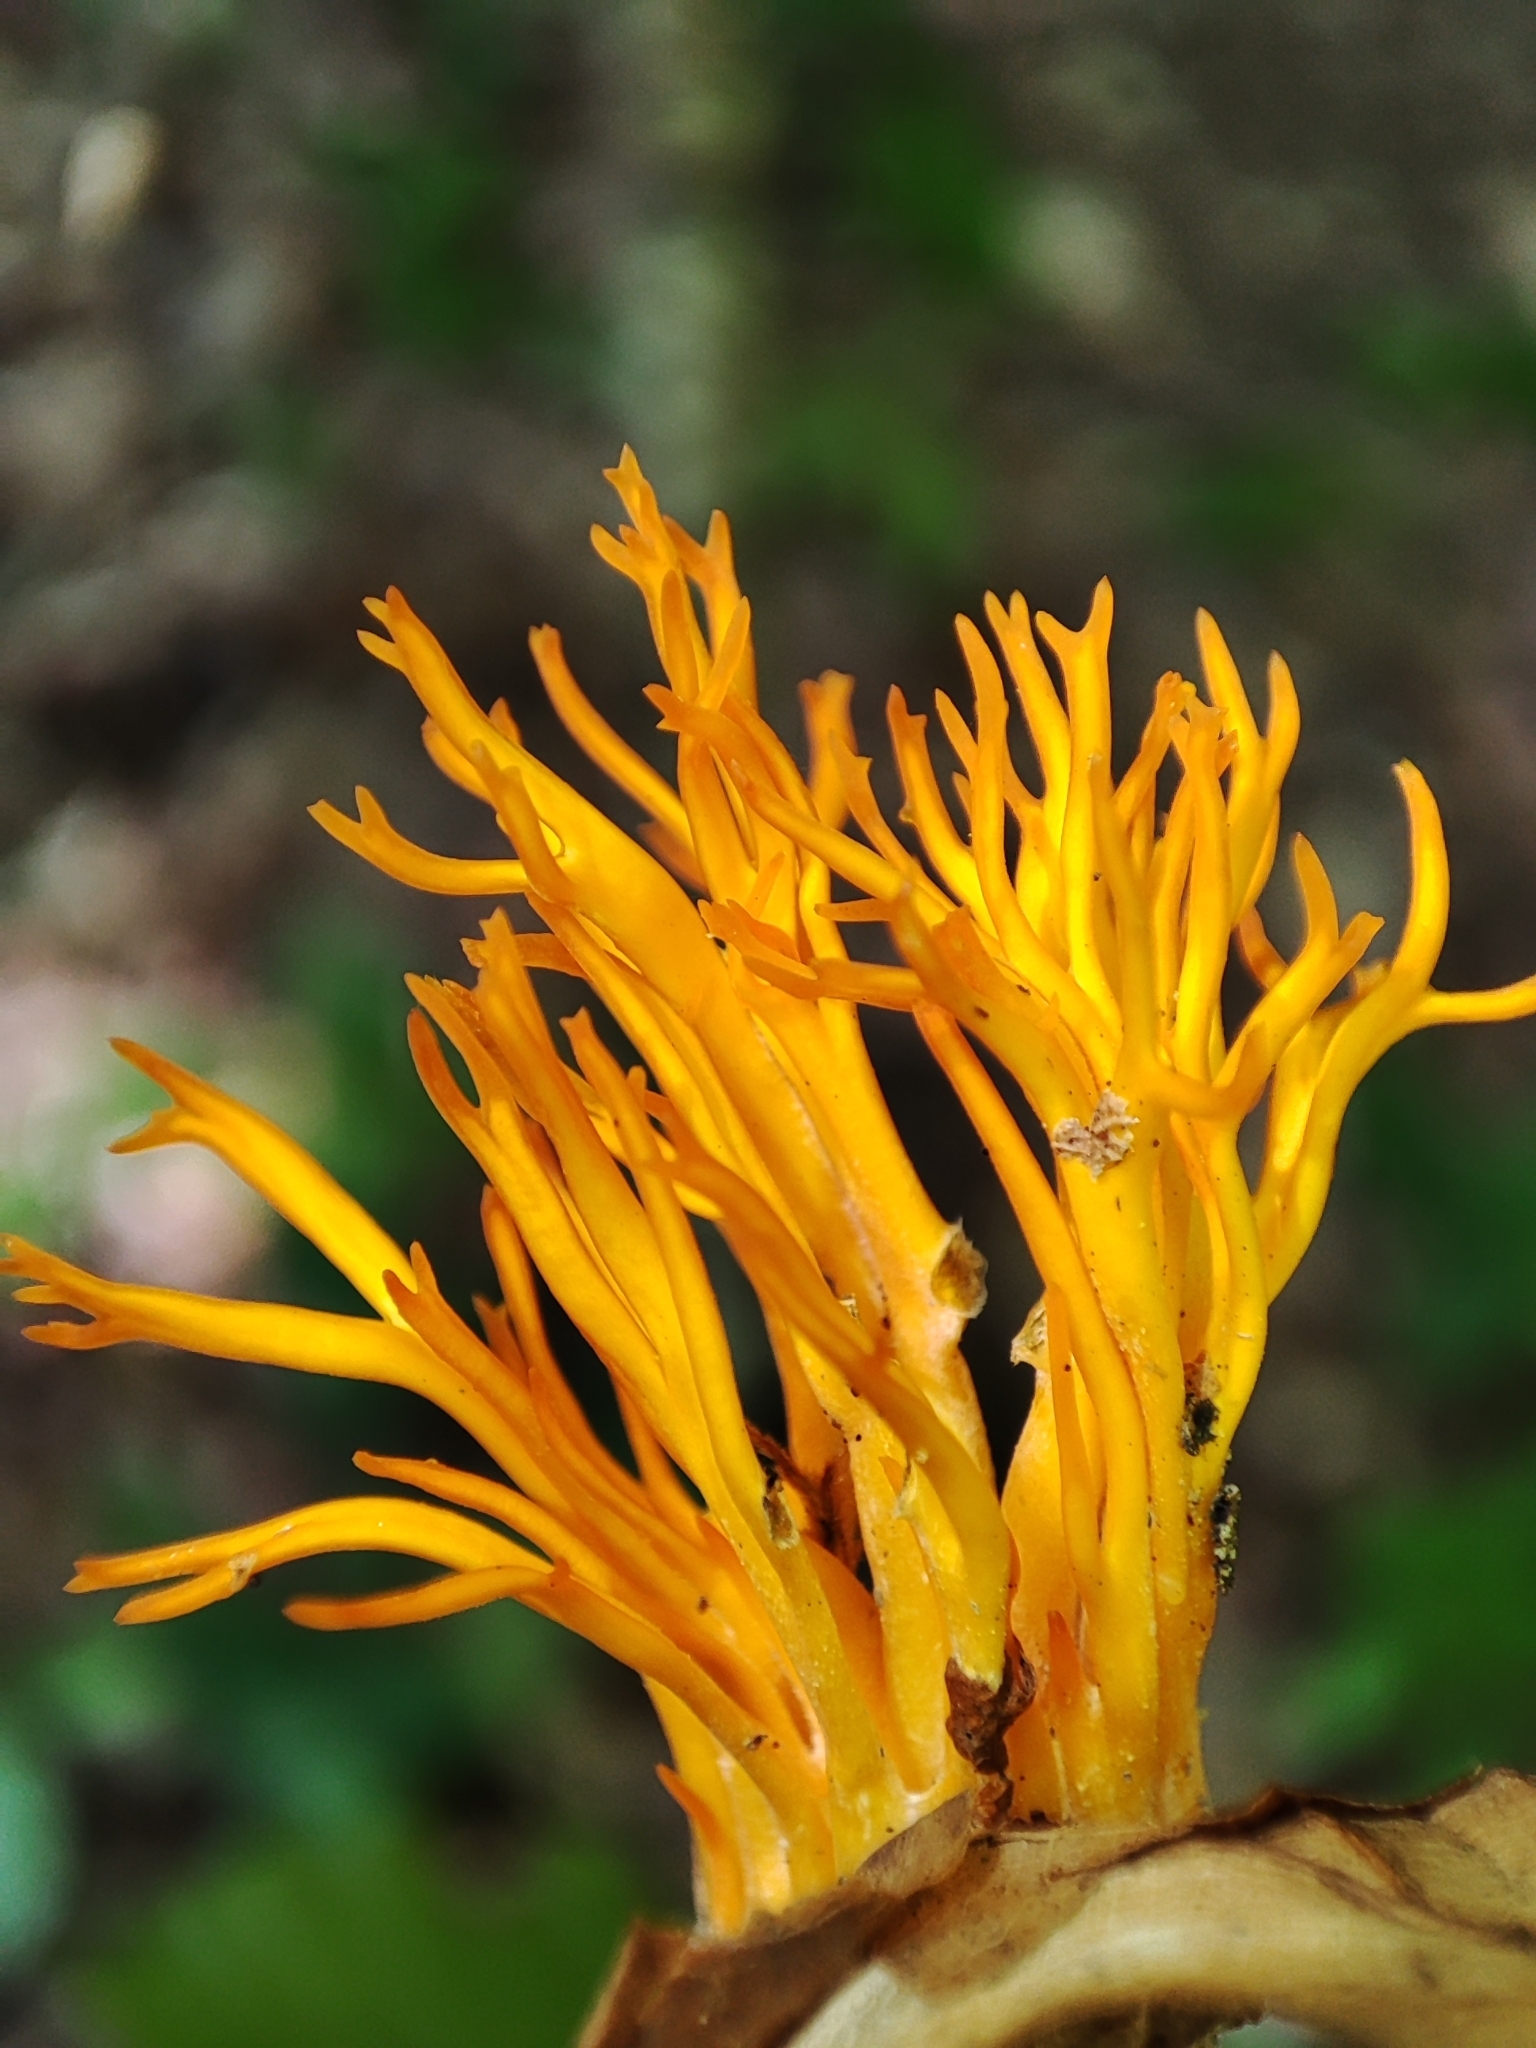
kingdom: Fungi
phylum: Basidiomycota
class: Dacrymycetes
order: Dacrymycetales
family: Dacrymycetaceae
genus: Calocera
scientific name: Calocera viscosa
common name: Yellow stagshorn
